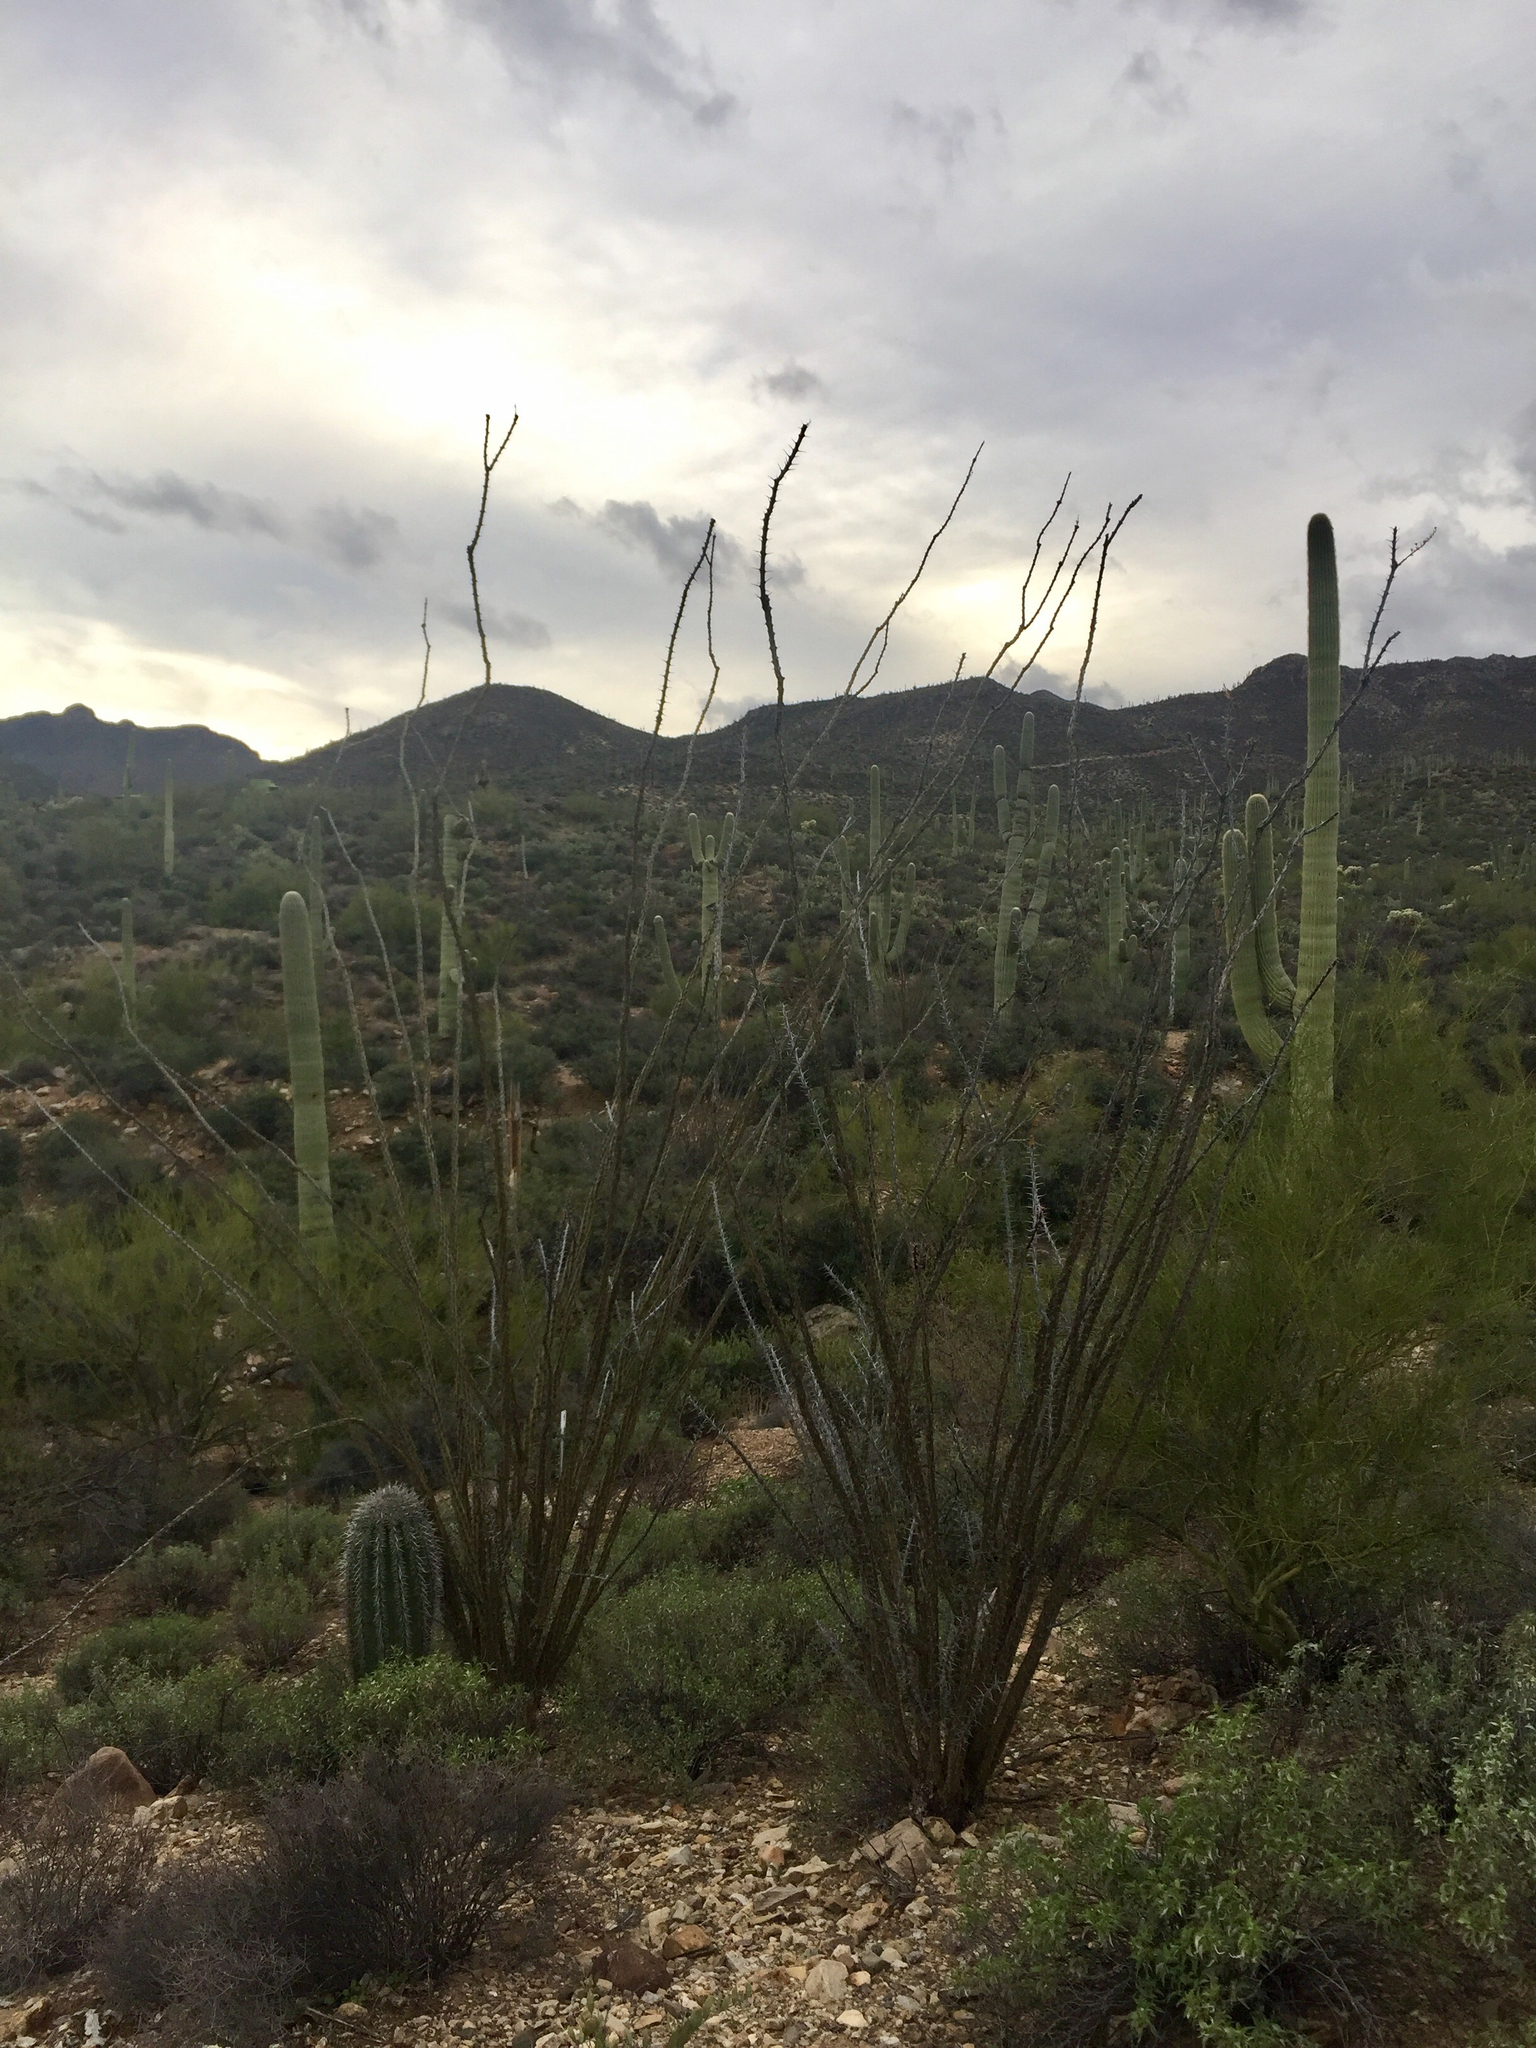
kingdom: Plantae
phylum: Tracheophyta
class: Magnoliopsida
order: Ericales
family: Fouquieriaceae
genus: Fouquieria
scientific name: Fouquieria splendens
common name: Vine-cactus
